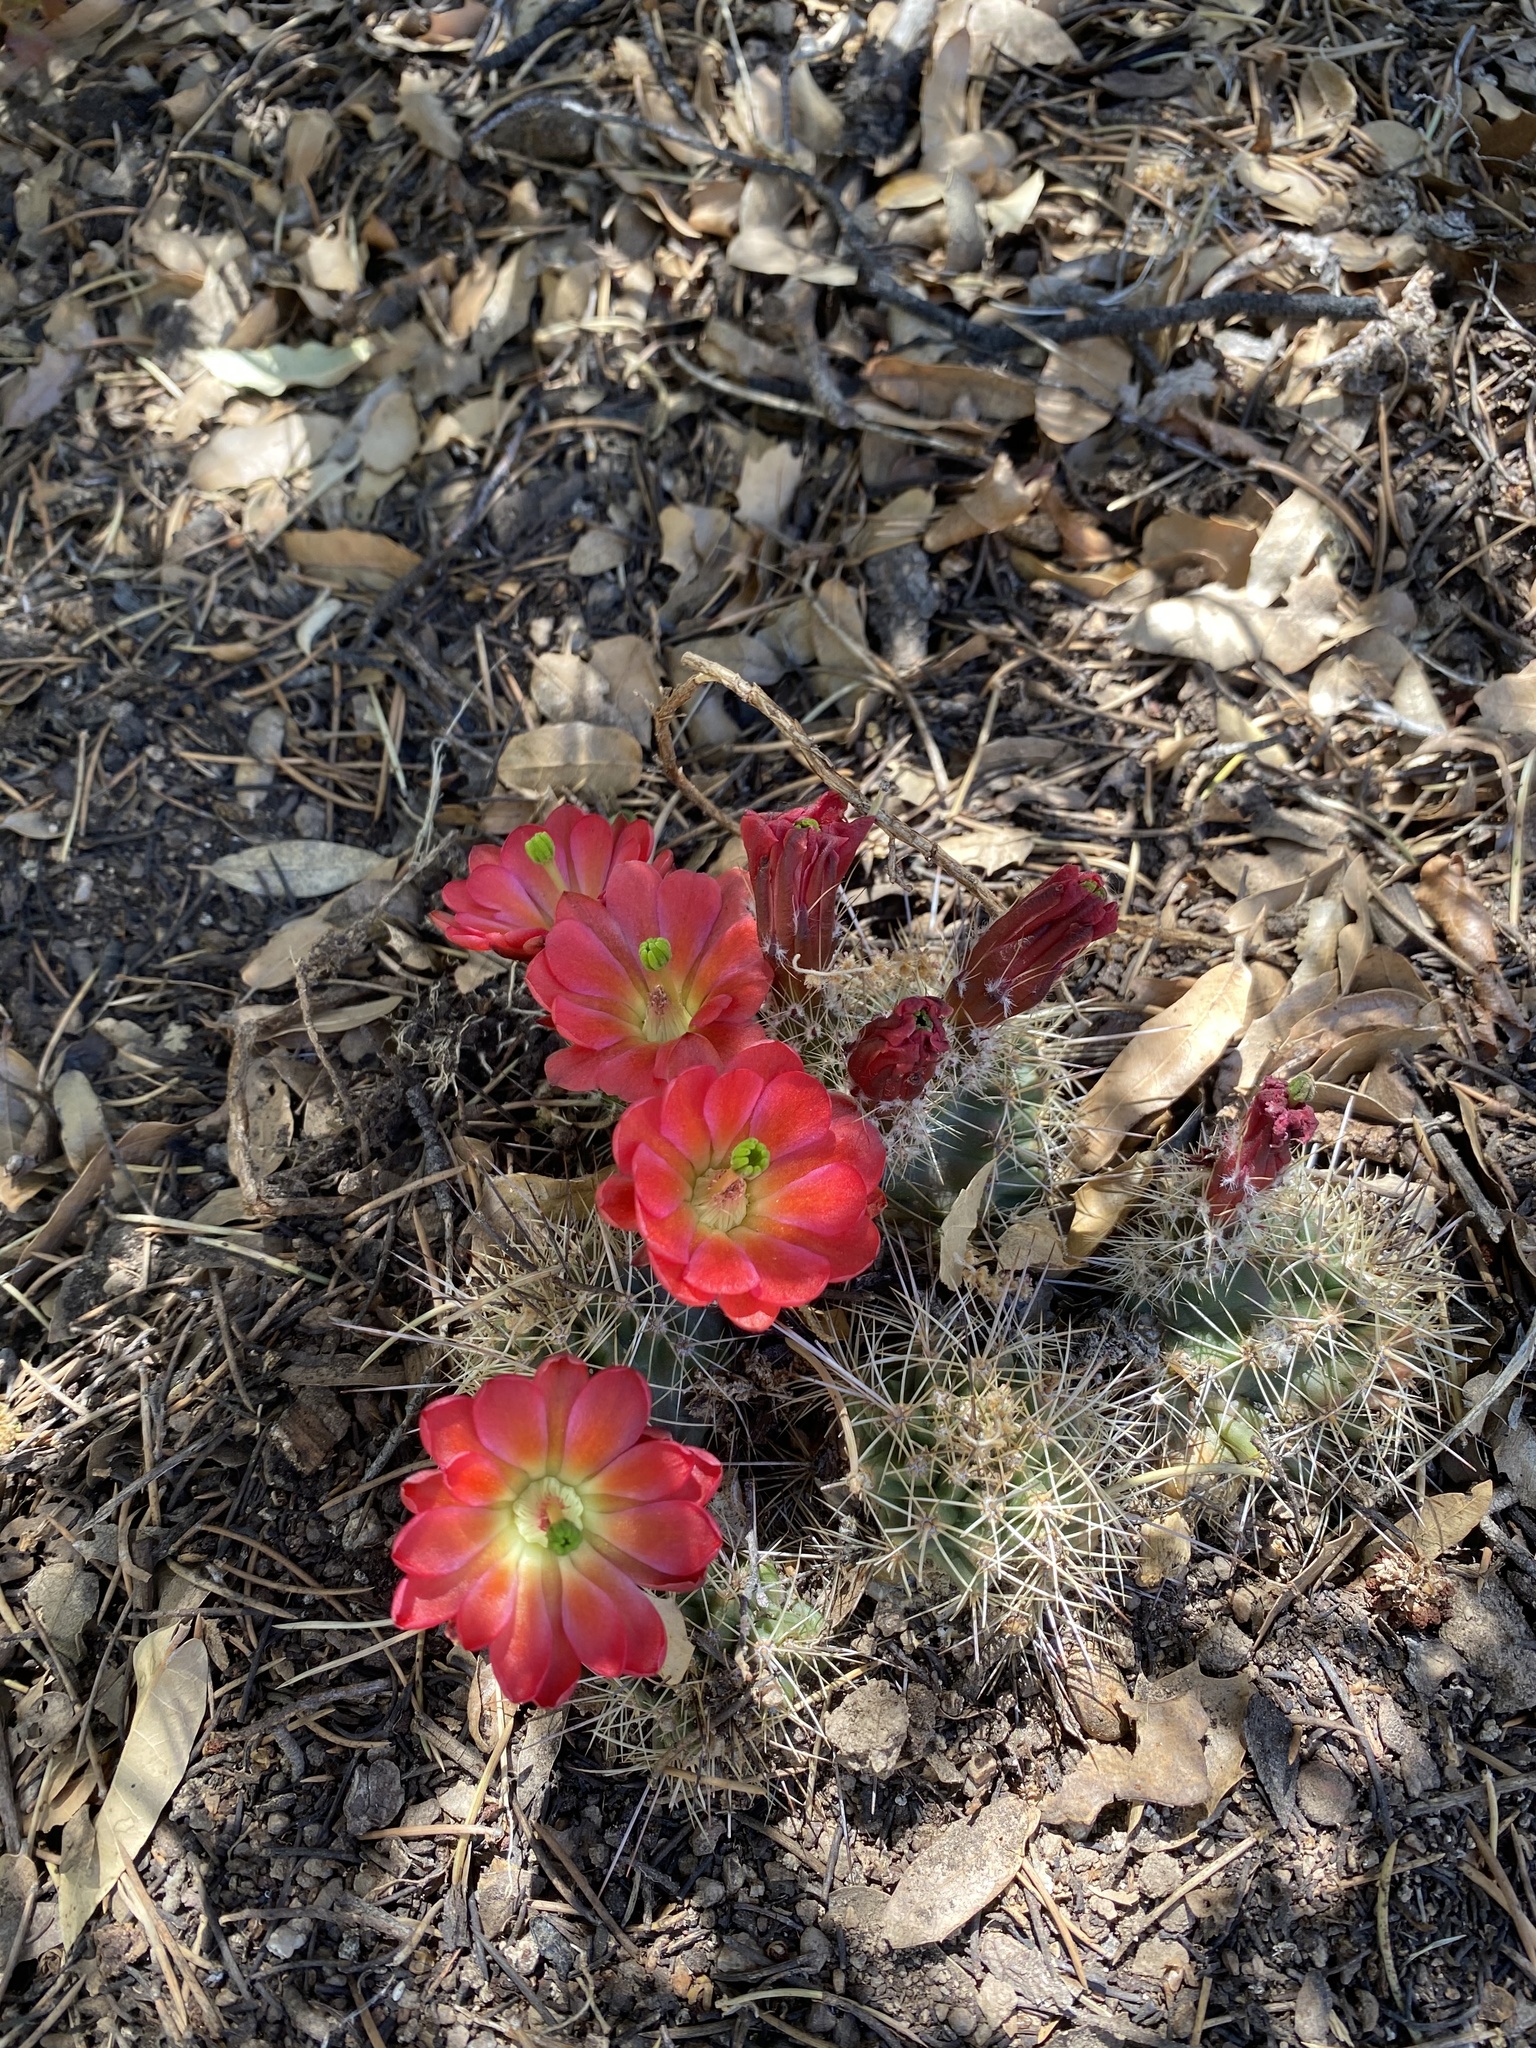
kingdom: Plantae
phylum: Tracheophyta
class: Magnoliopsida
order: Caryophyllales
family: Cactaceae
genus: Echinocereus
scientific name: Echinocereus bakeri
